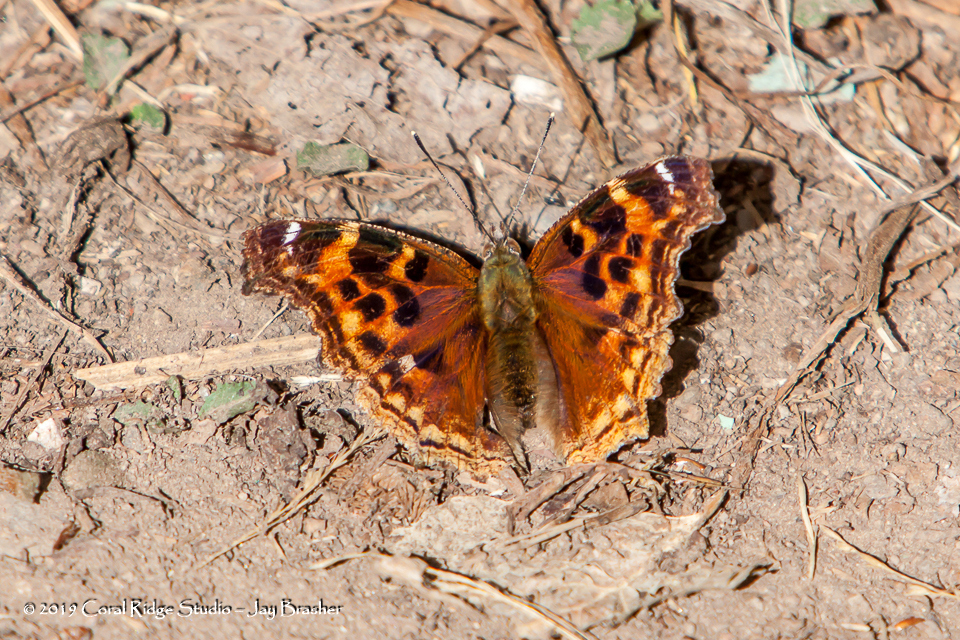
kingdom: Animalia
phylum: Arthropoda
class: Insecta
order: Lepidoptera
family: Nymphalidae
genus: Polygonia
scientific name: Polygonia vaualbum
